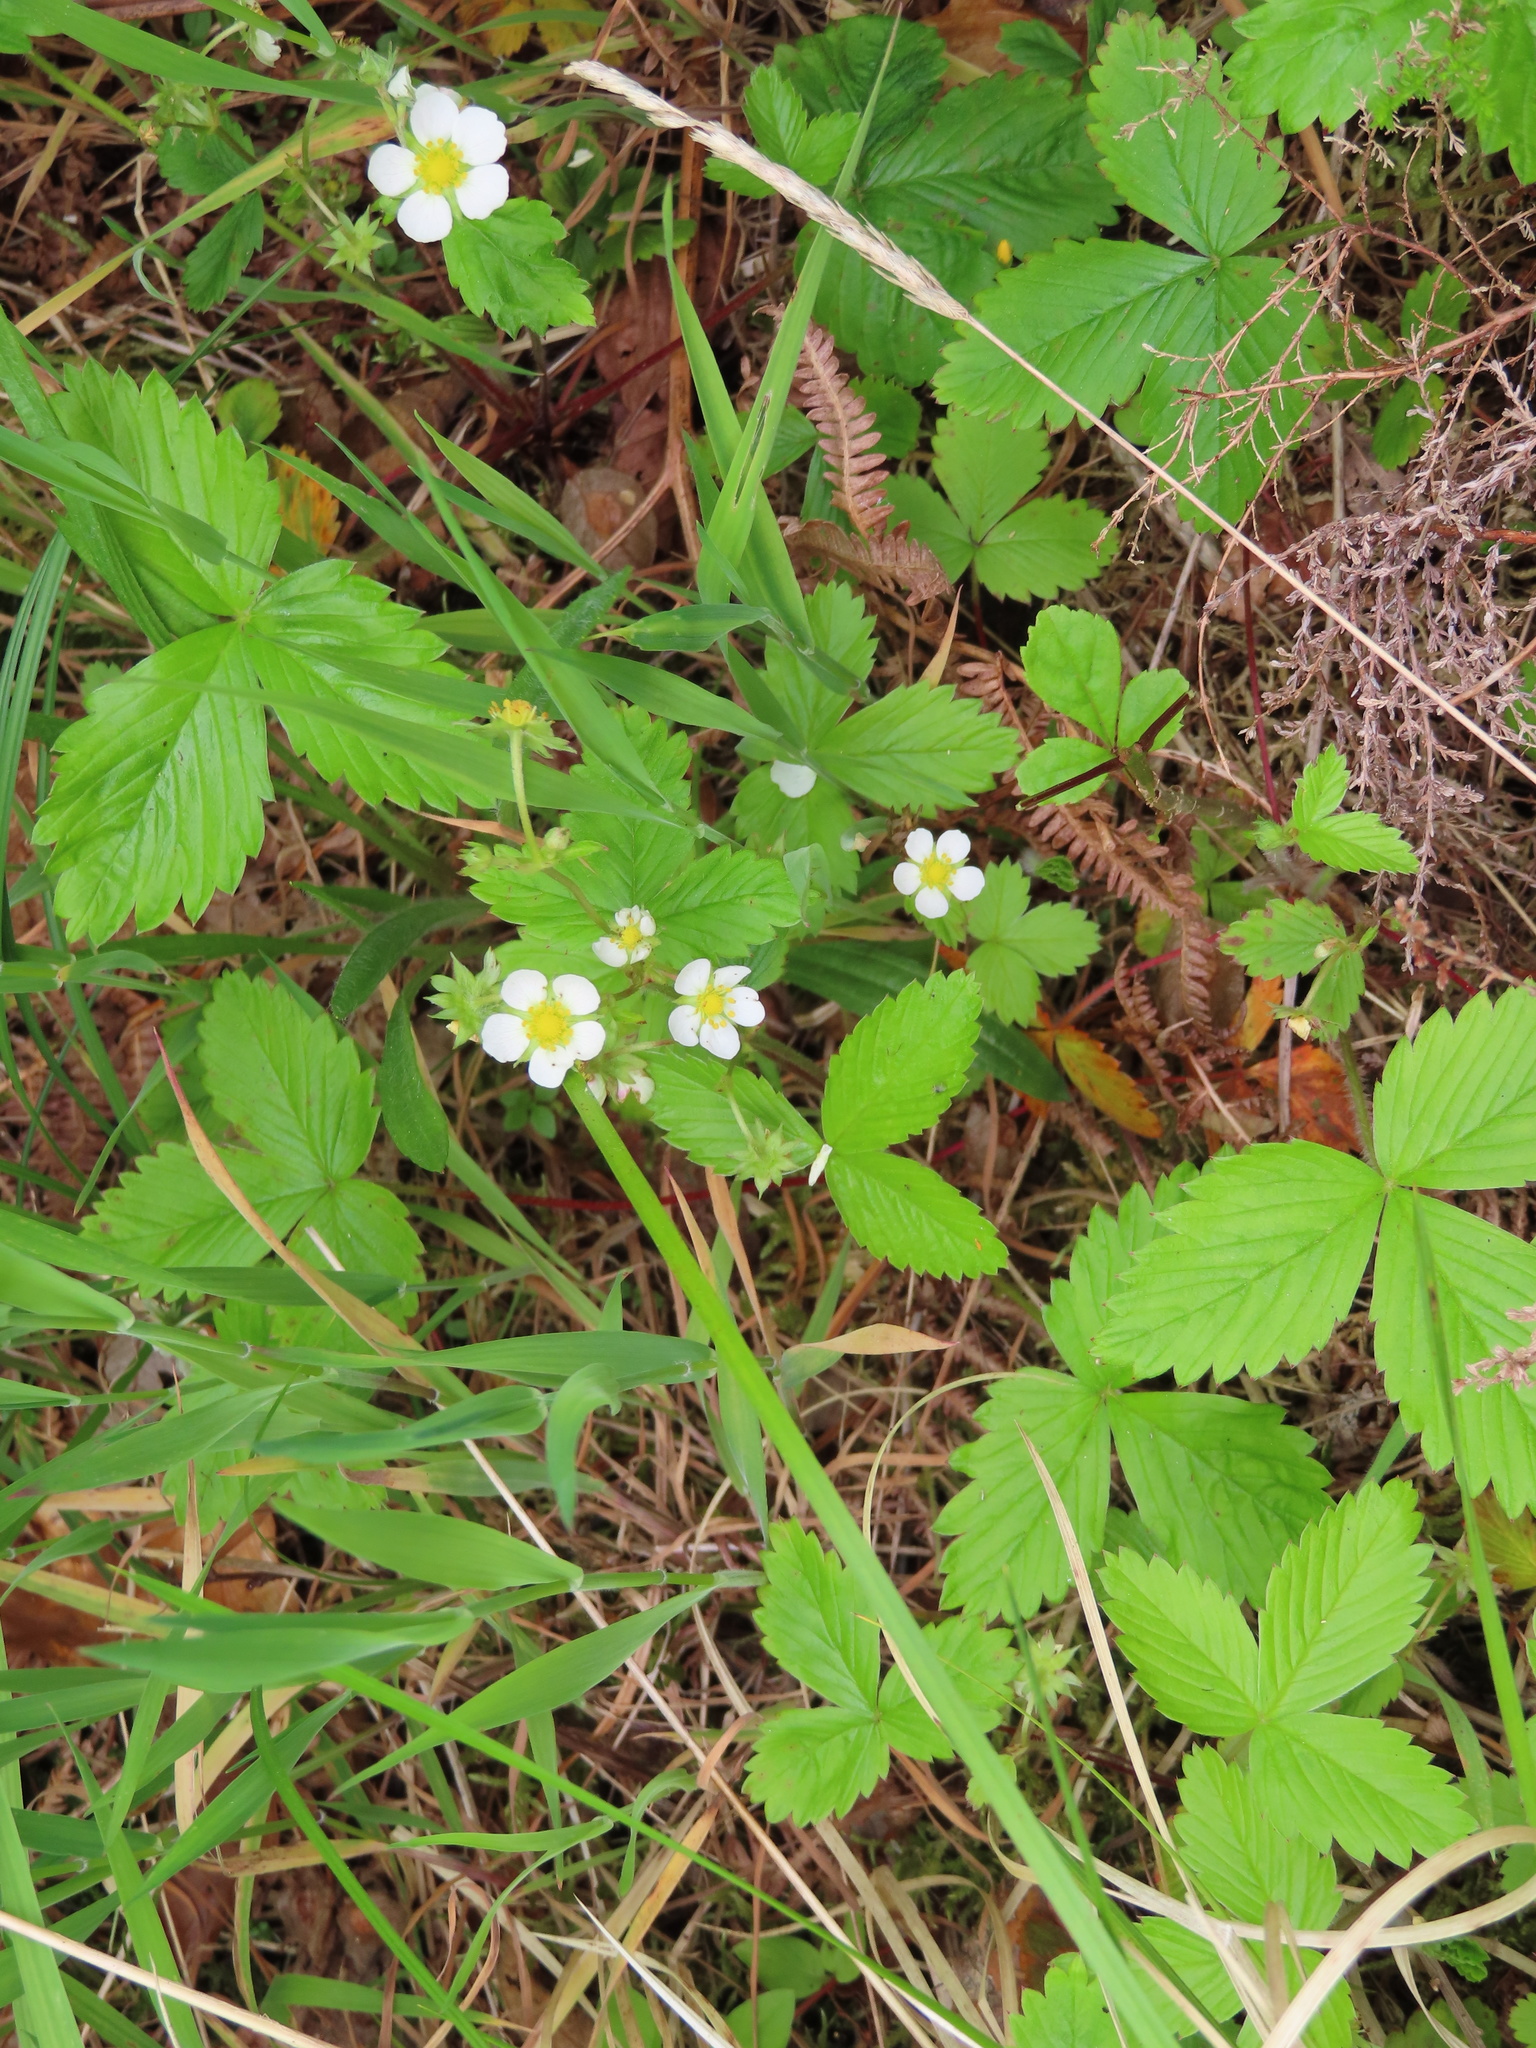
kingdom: Plantae
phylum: Tracheophyta
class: Magnoliopsida
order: Rosales
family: Rosaceae
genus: Fragaria
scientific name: Fragaria vesca
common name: Wild strawberry
